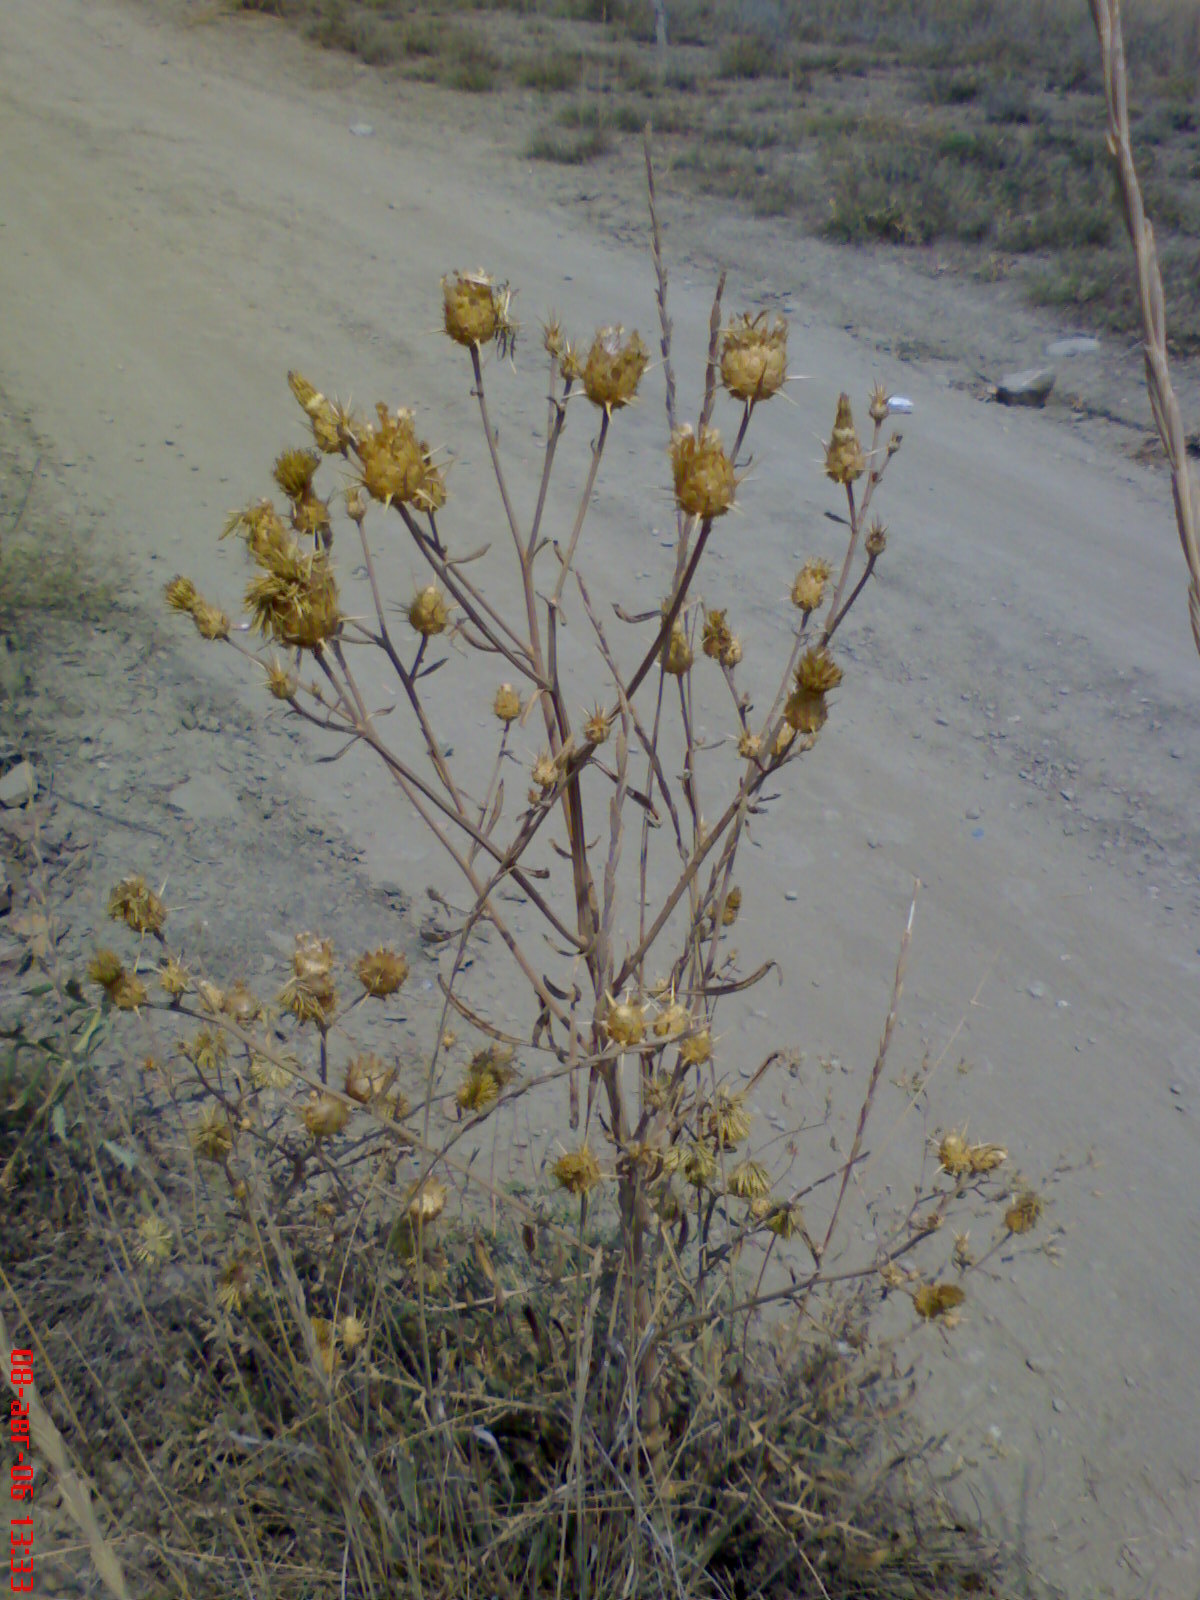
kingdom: Plantae
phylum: Tracheophyta
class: Magnoliopsida
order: Asterales
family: Asteraceae
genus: Centaurea
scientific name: Centaurea salonitana
